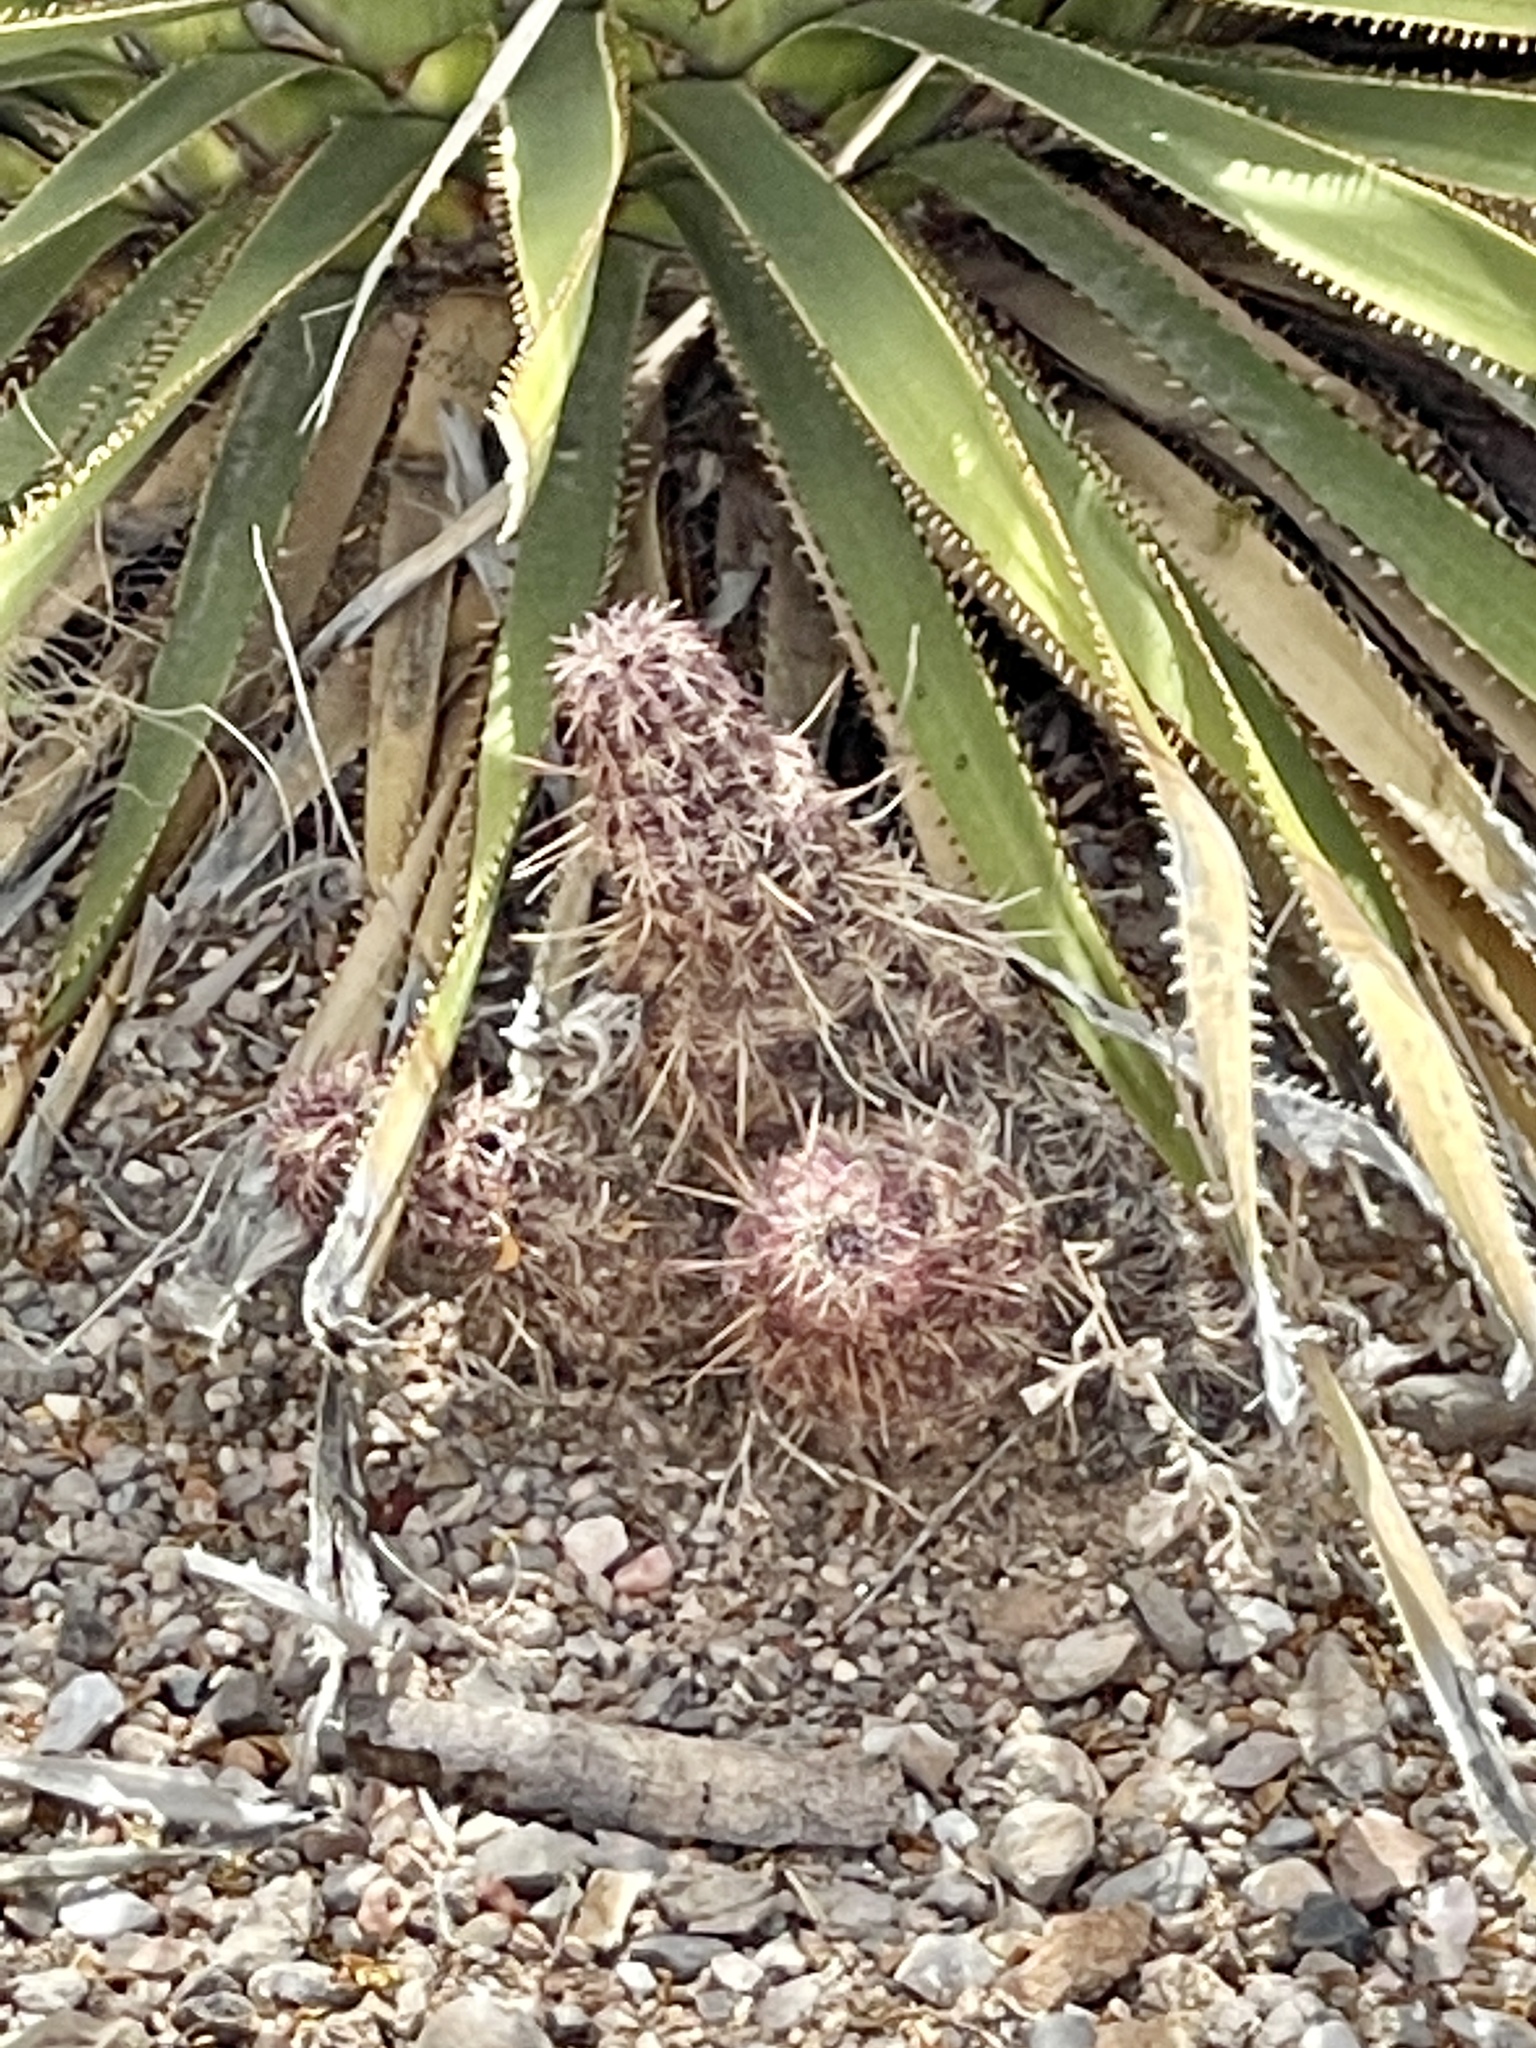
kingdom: Plantae
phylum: Tracheophyta
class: Magnoliopsida
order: Caryophyllales
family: Cactaceae
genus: Echinocereus
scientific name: Echinocereus viridiflorus
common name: Nylon hedgehog cactus
